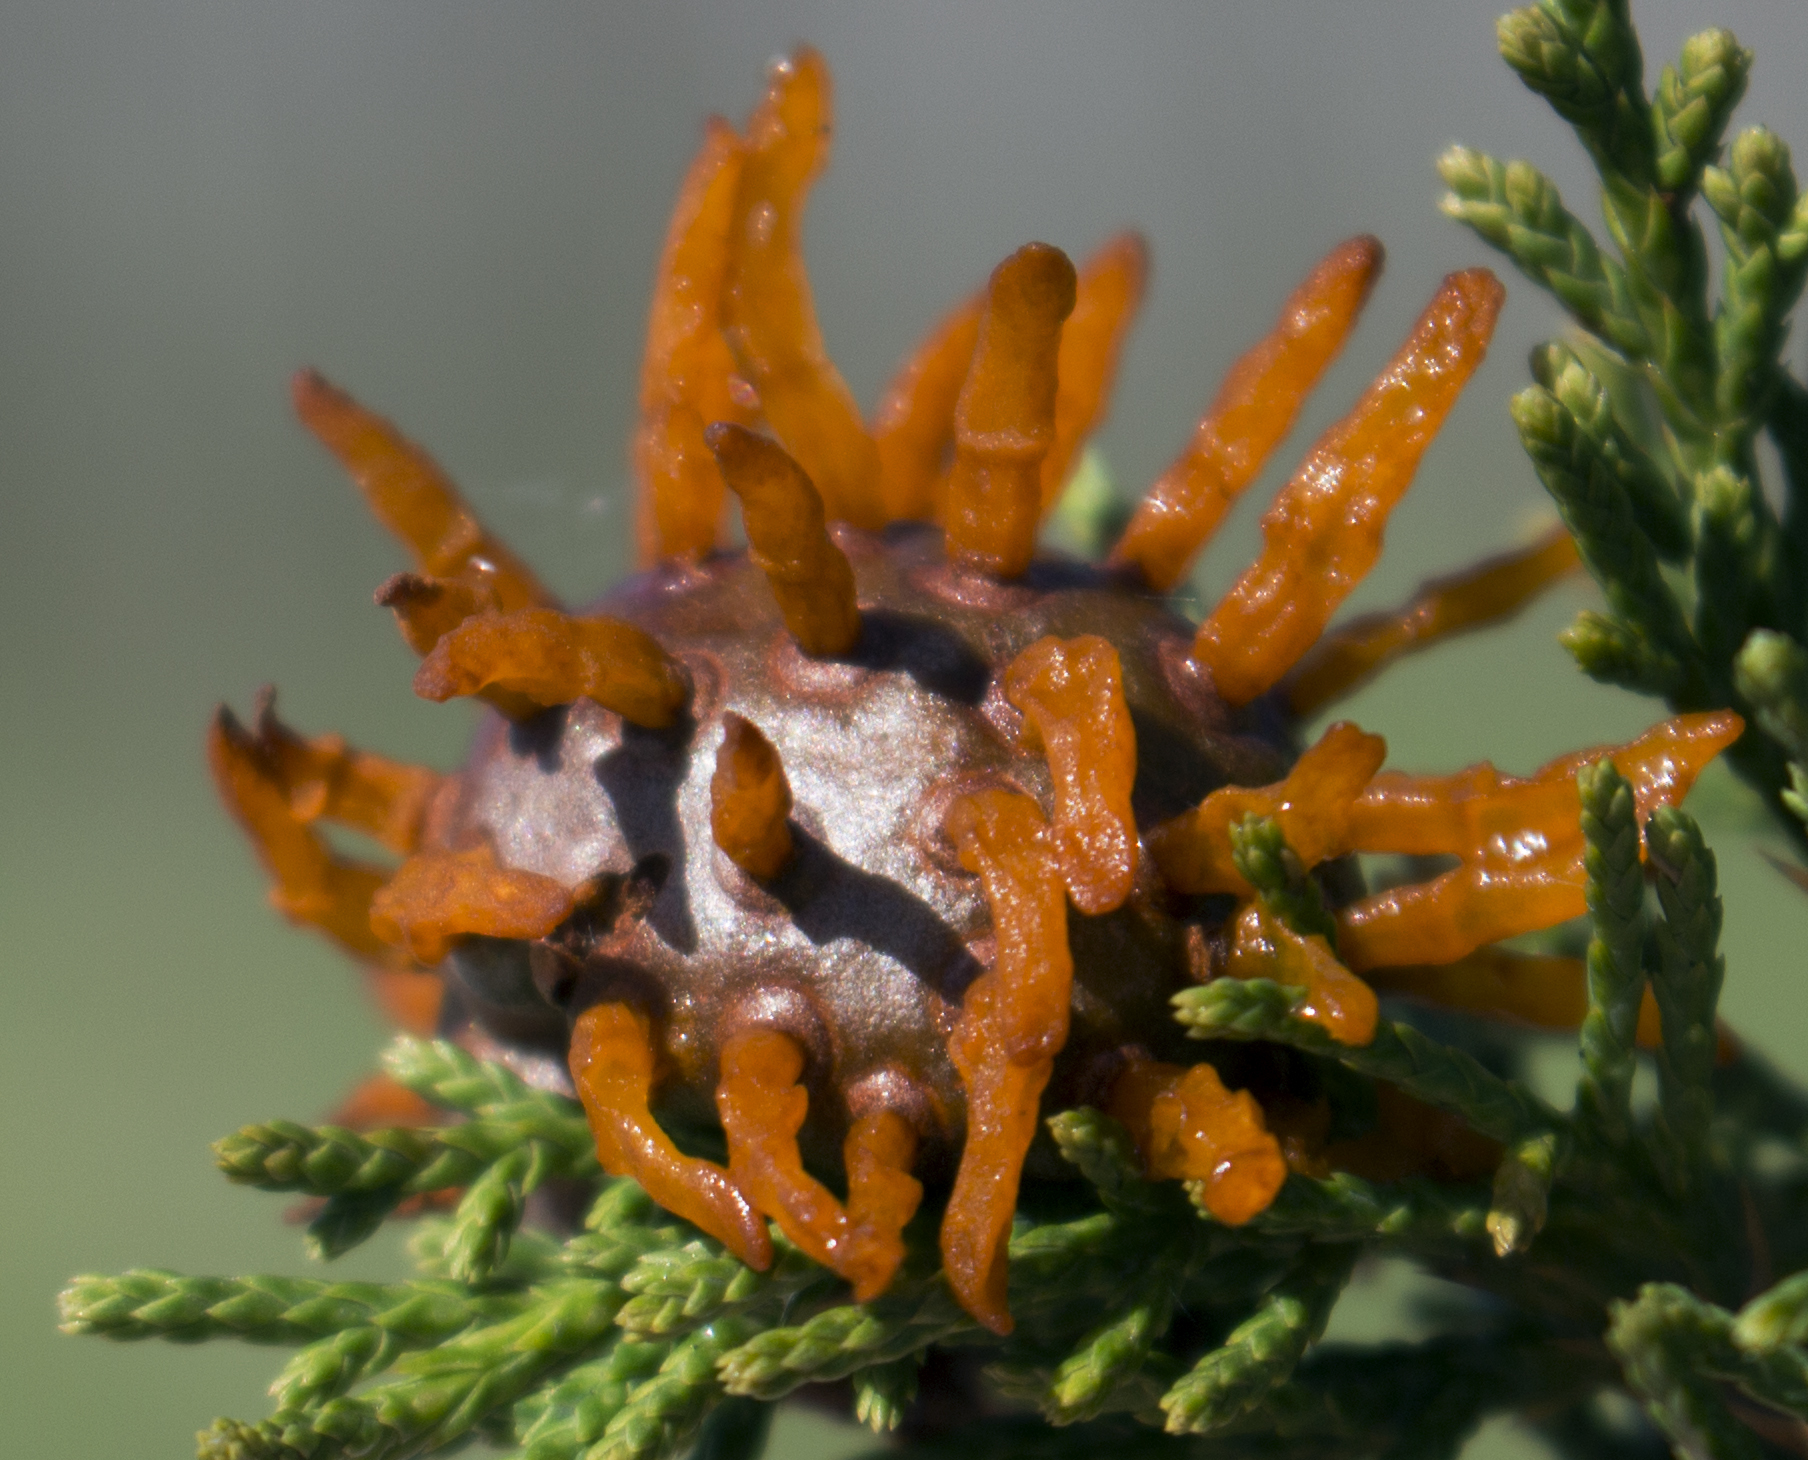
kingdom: Fungi
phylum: Basidiomycota
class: Pucciniomycetes
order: Pucciniales
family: Gymnosporangiaceae
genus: Gymnosporangium
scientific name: Gymnosporangium juniperi-virginianae
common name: Juniper-apple rust
